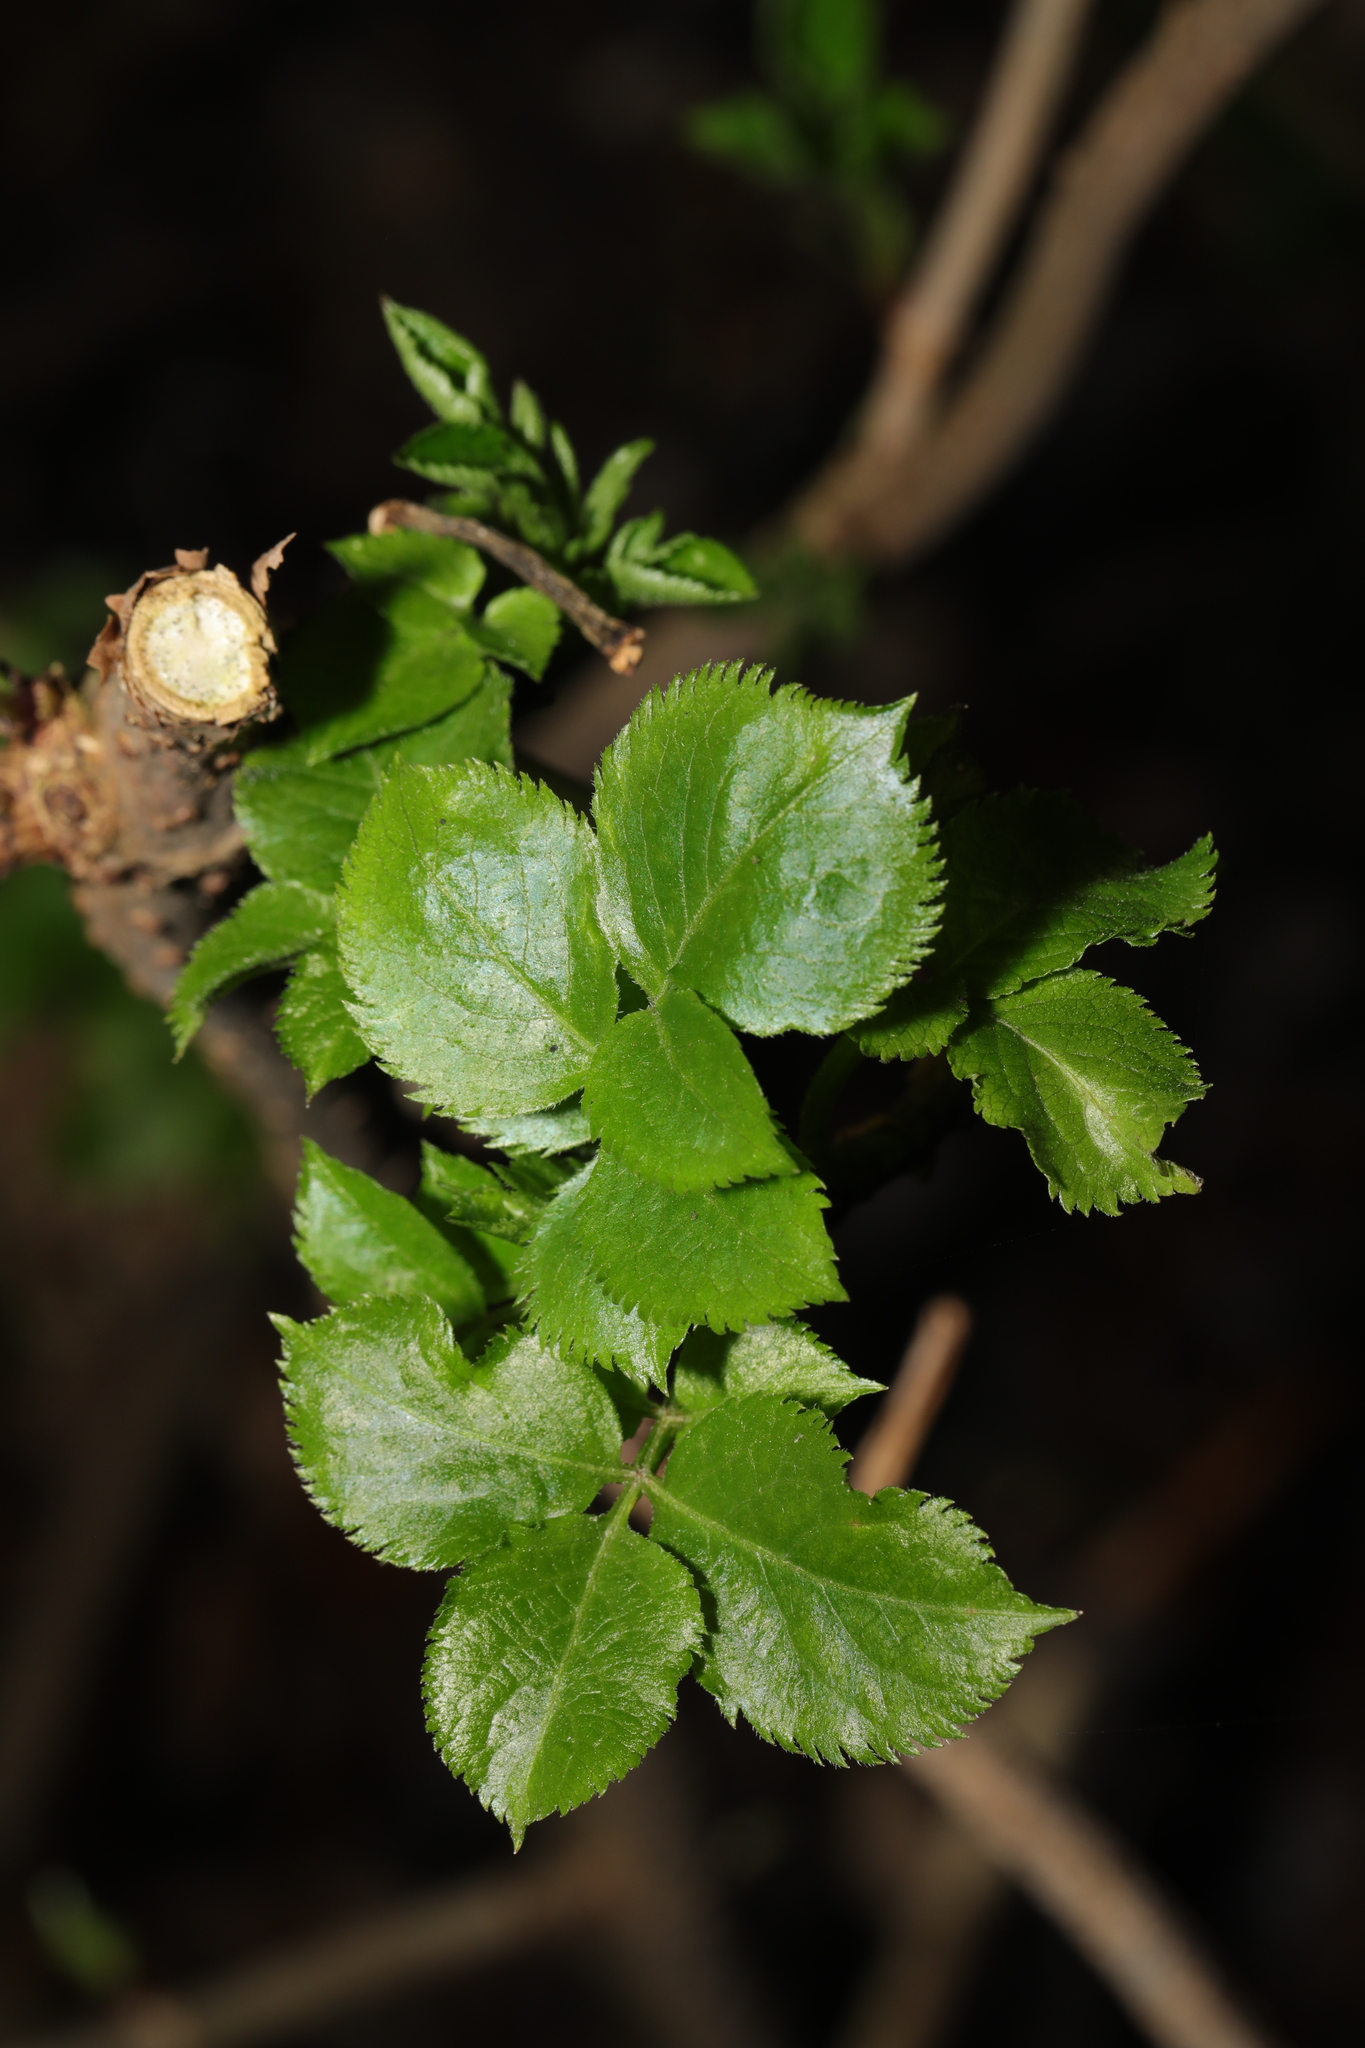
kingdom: Plantae
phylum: Tracheophyta
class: Magnoliopsida
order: Dipsacales
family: Viburnaceae
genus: Sambucus
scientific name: Sambucus nigra
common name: Elder
